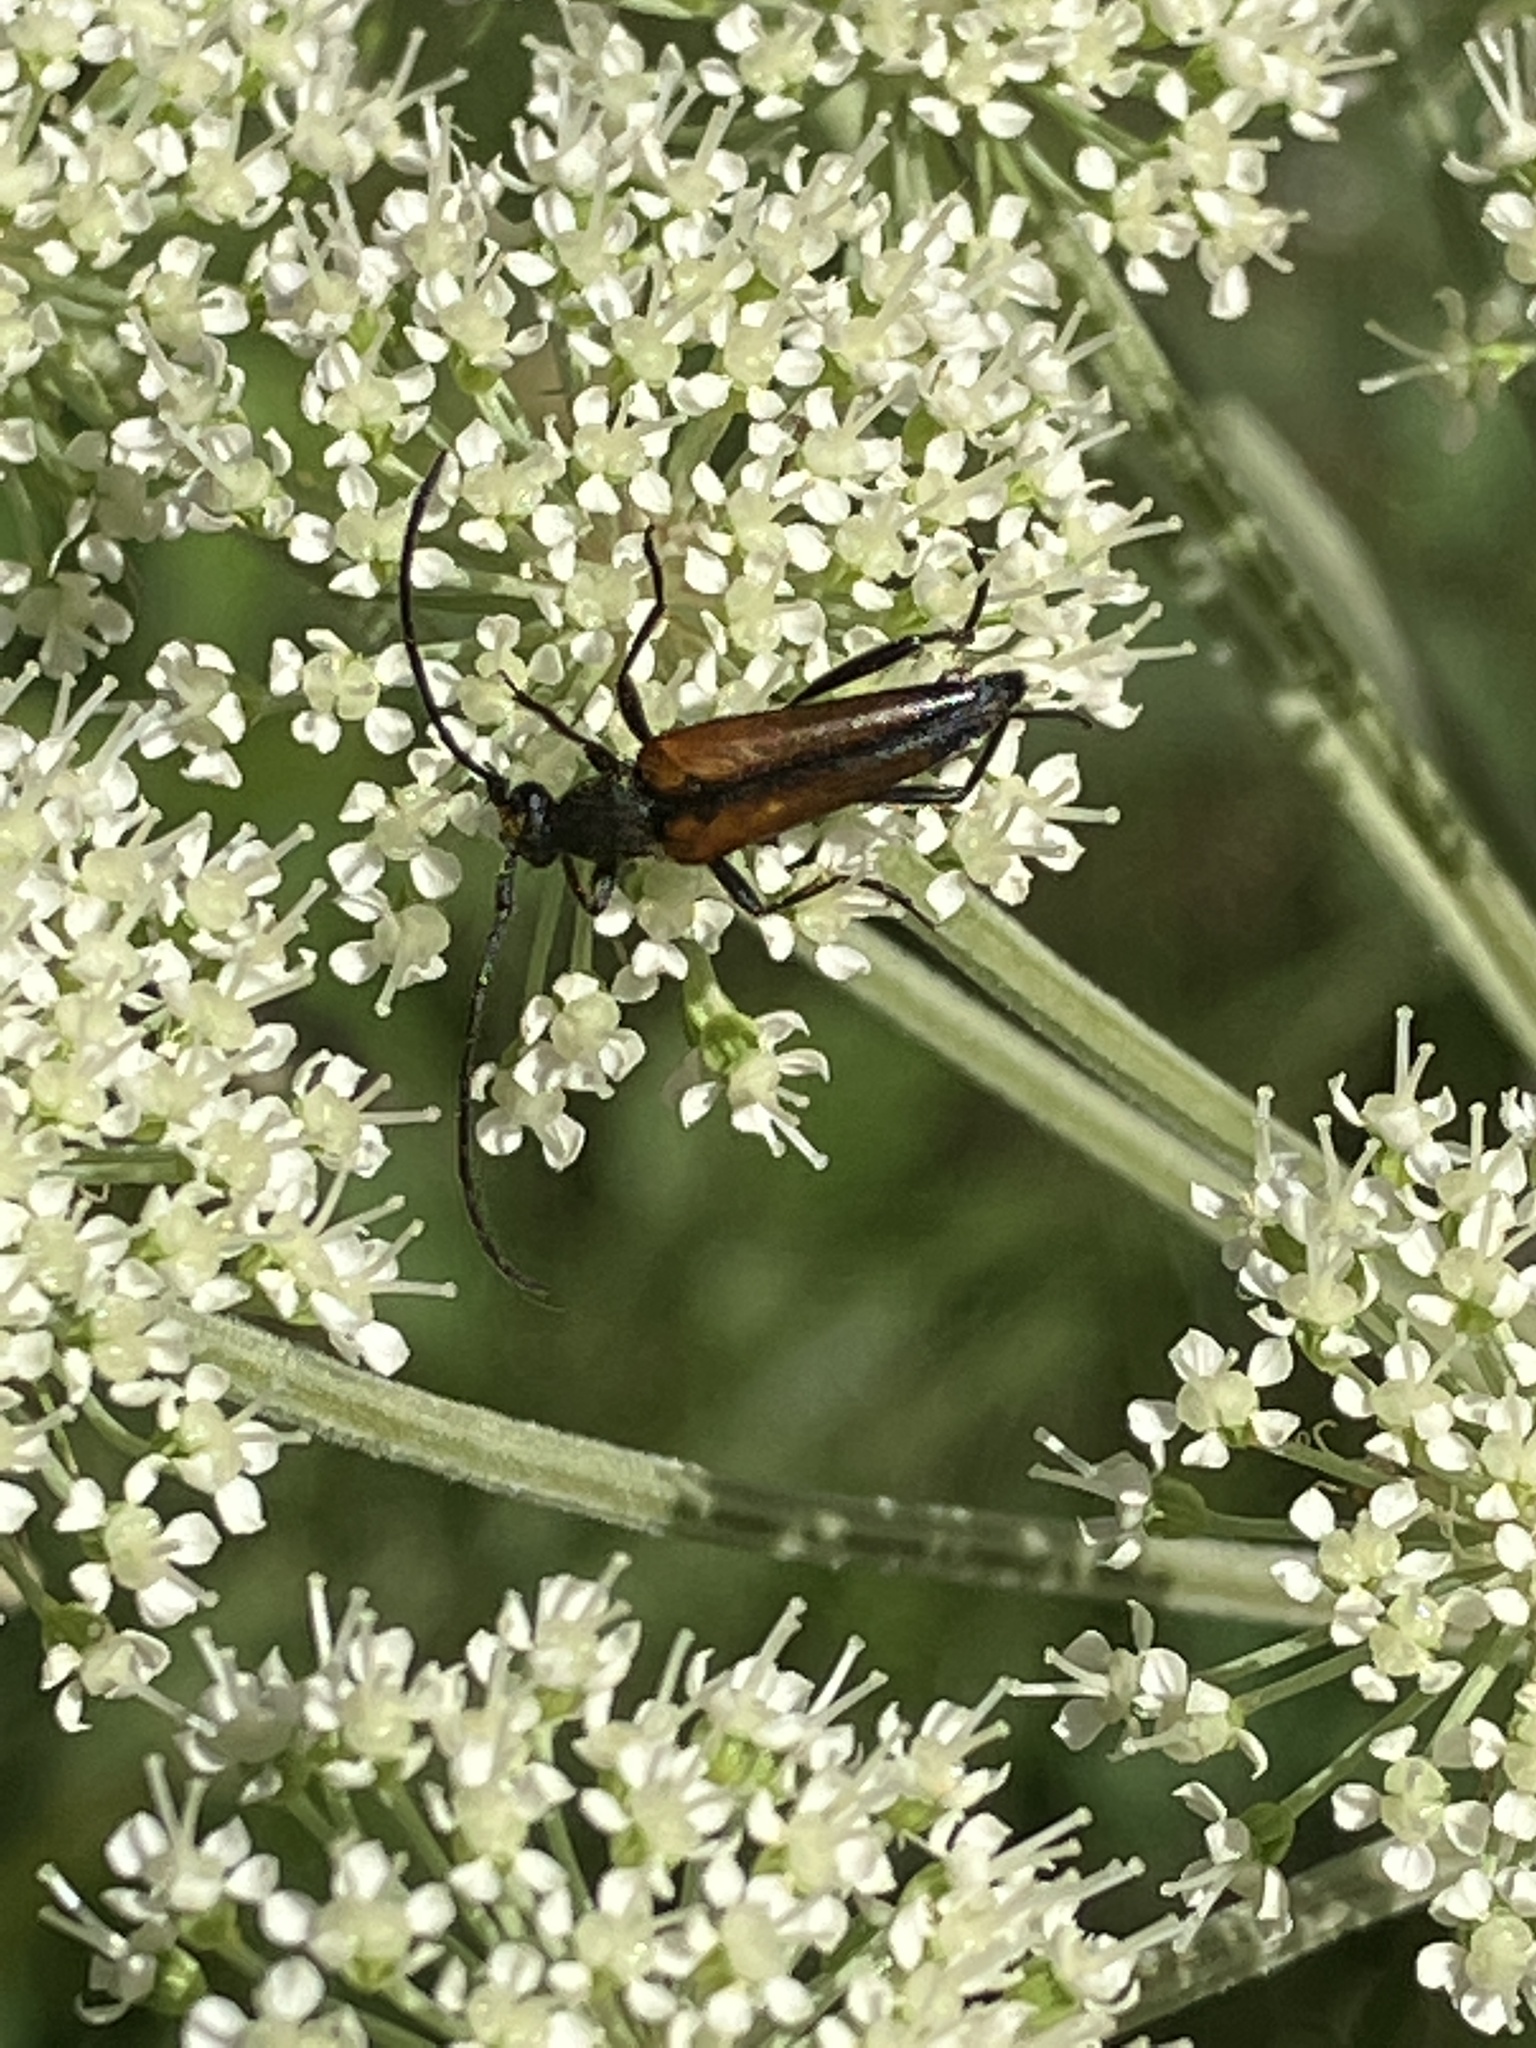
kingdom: Animalia
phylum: Arthropoda
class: Insecta
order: Coleoptera
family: Cerambycidae
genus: Stenurella
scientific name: Stenurella melanura
